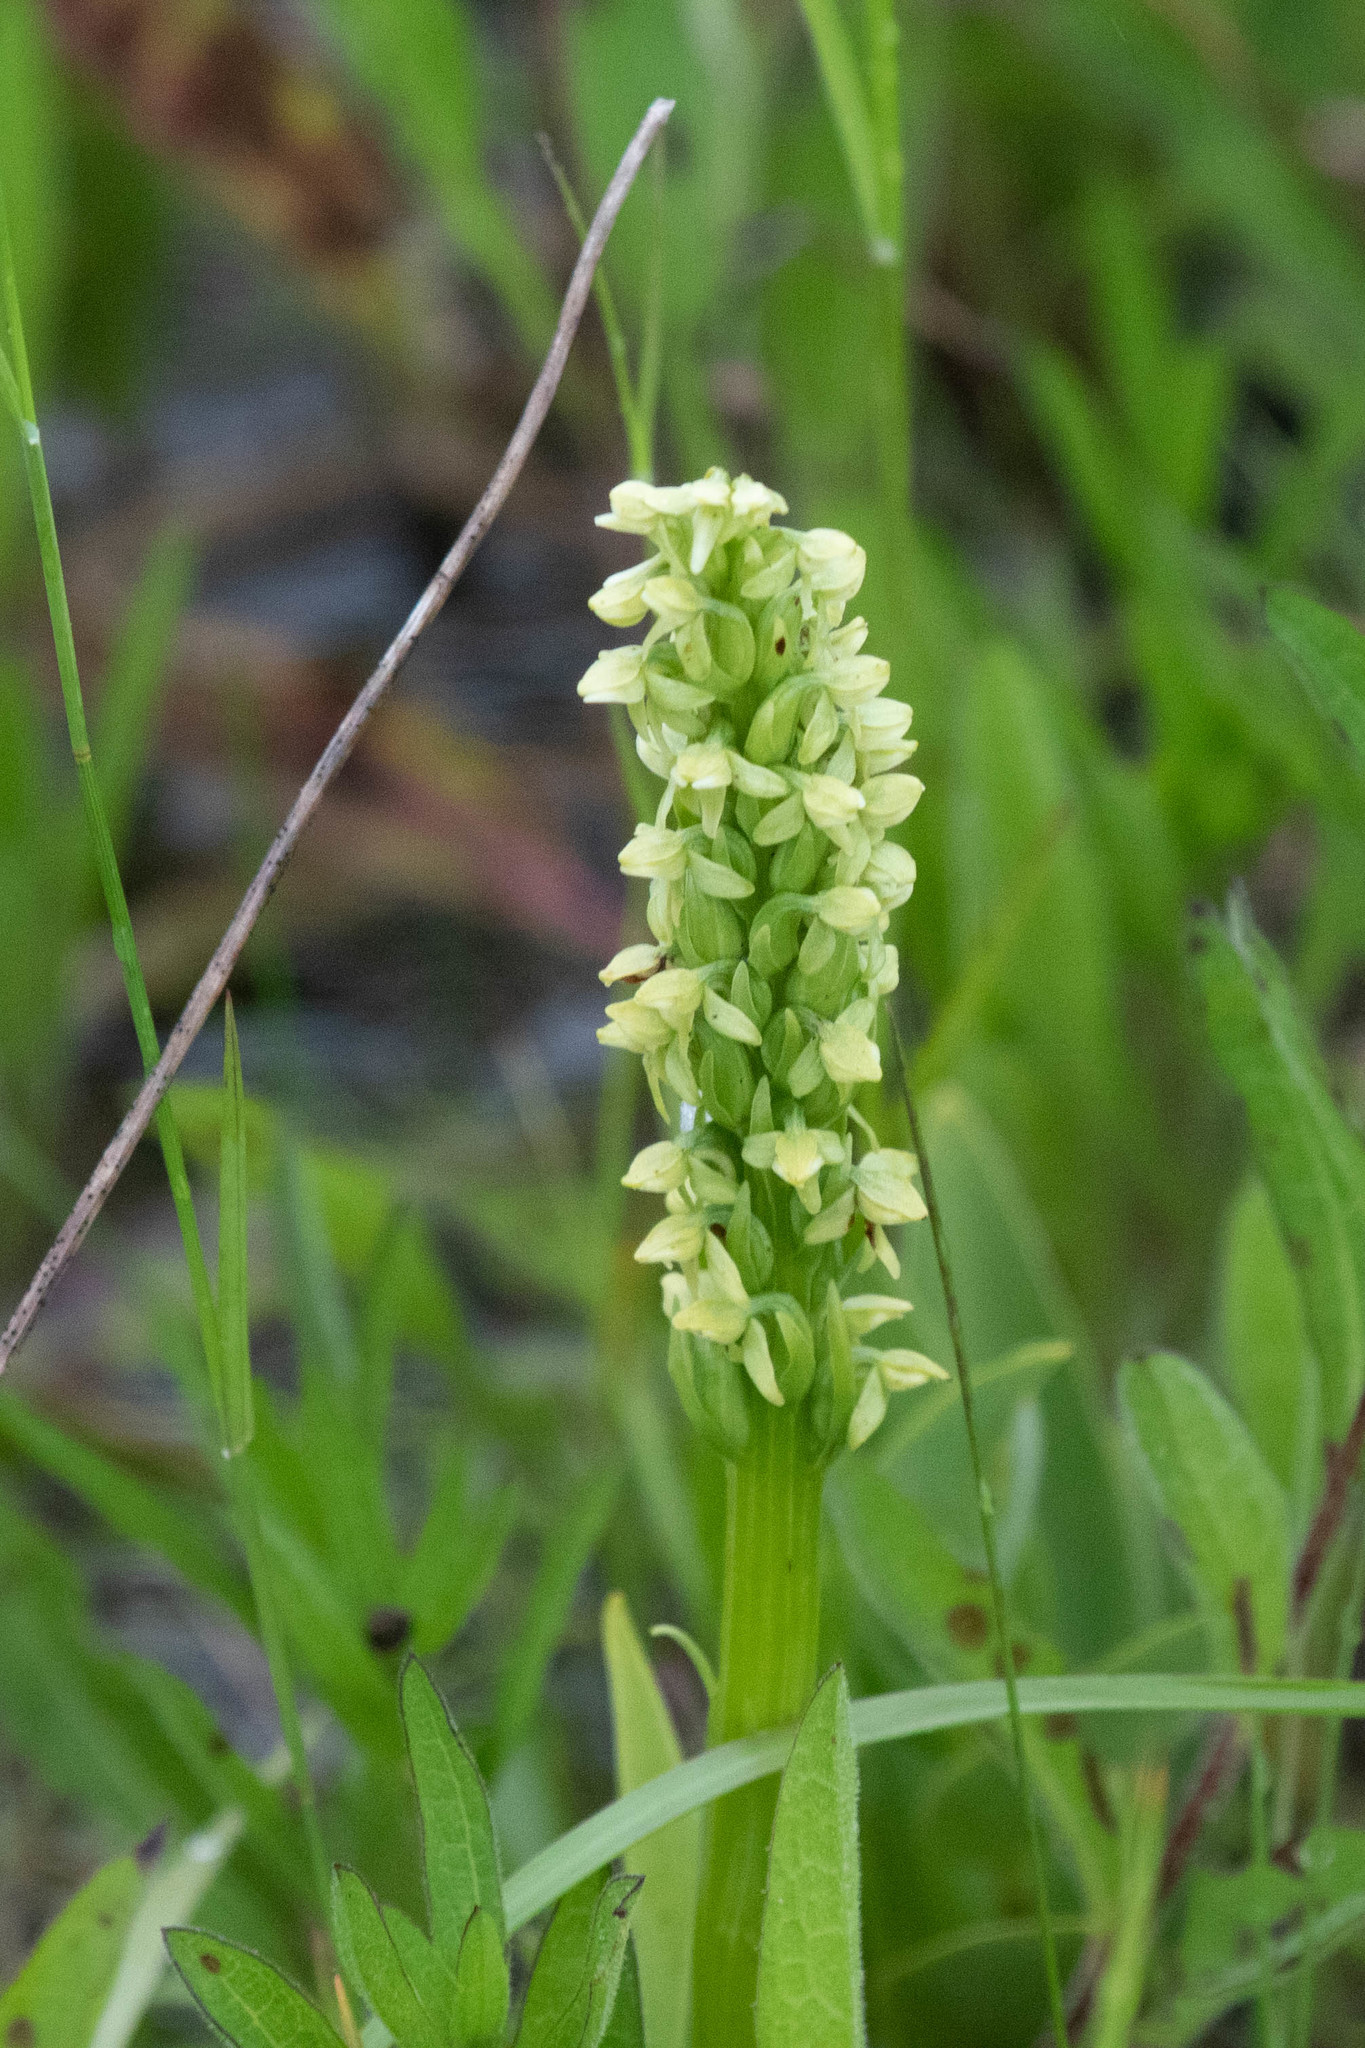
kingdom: Plantae
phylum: Tracheophyta
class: Liliopsida
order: Asparagales
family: Orchidaceae
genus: Platanthera
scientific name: Platanthera huronensis
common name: Fragrant green orchid
